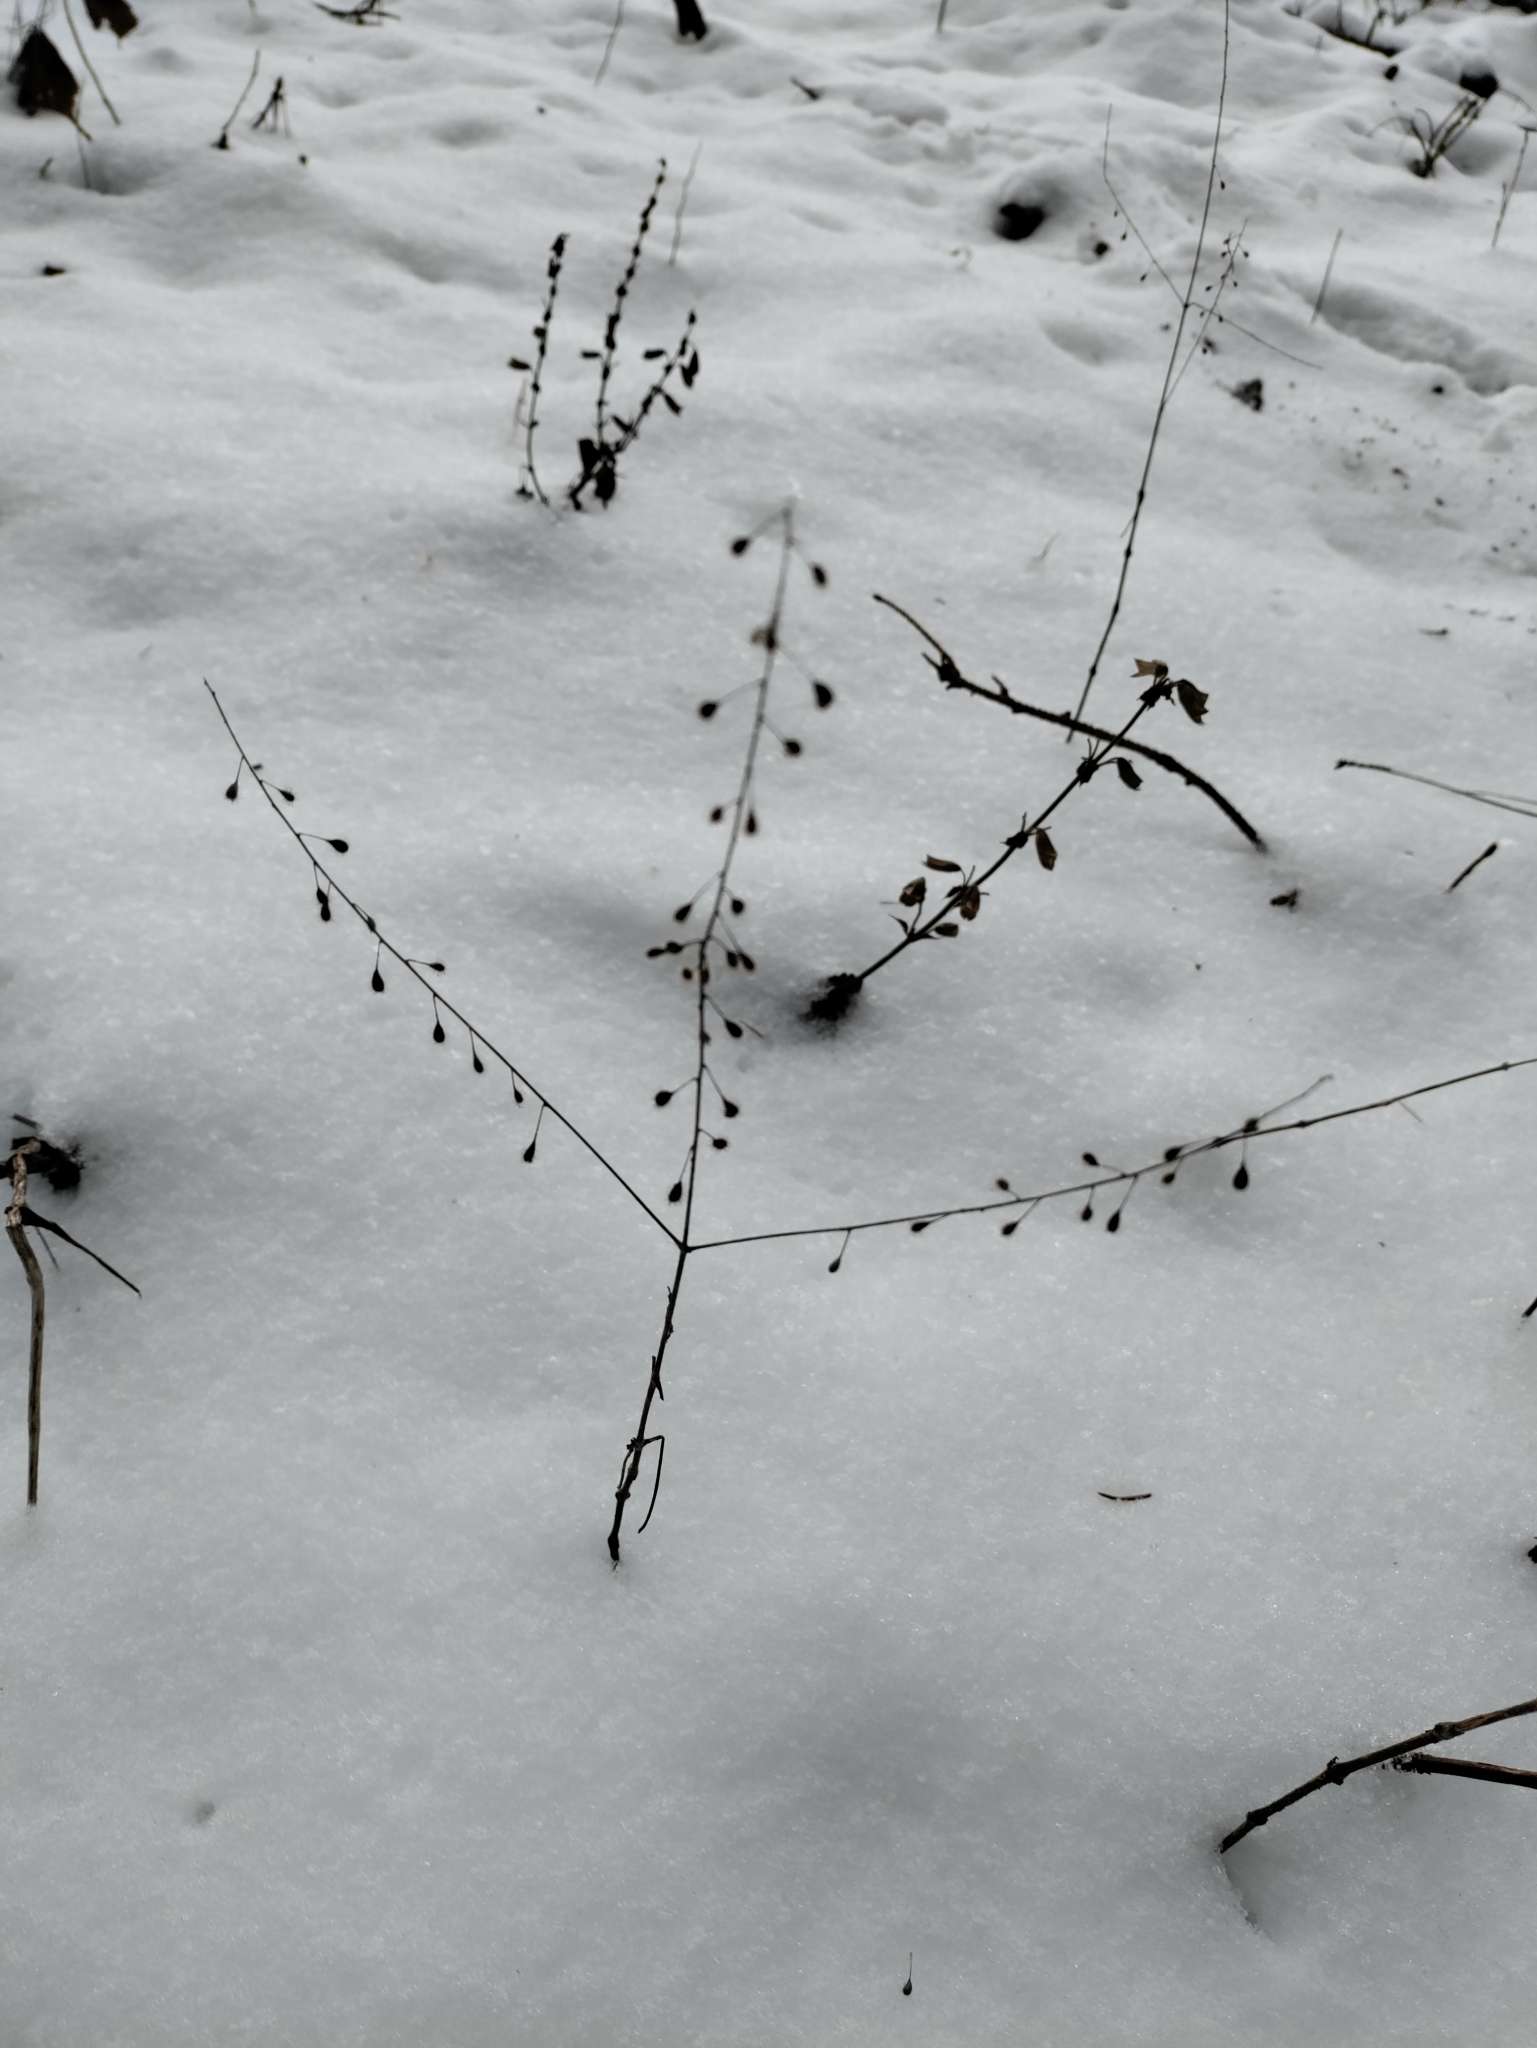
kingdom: Plantae
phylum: Tracheophyta
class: Magnoliopsida
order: Myrtales
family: Onagraceae
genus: Circaea
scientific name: Circaea lutetiana
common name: Enchanter's-nightshade
